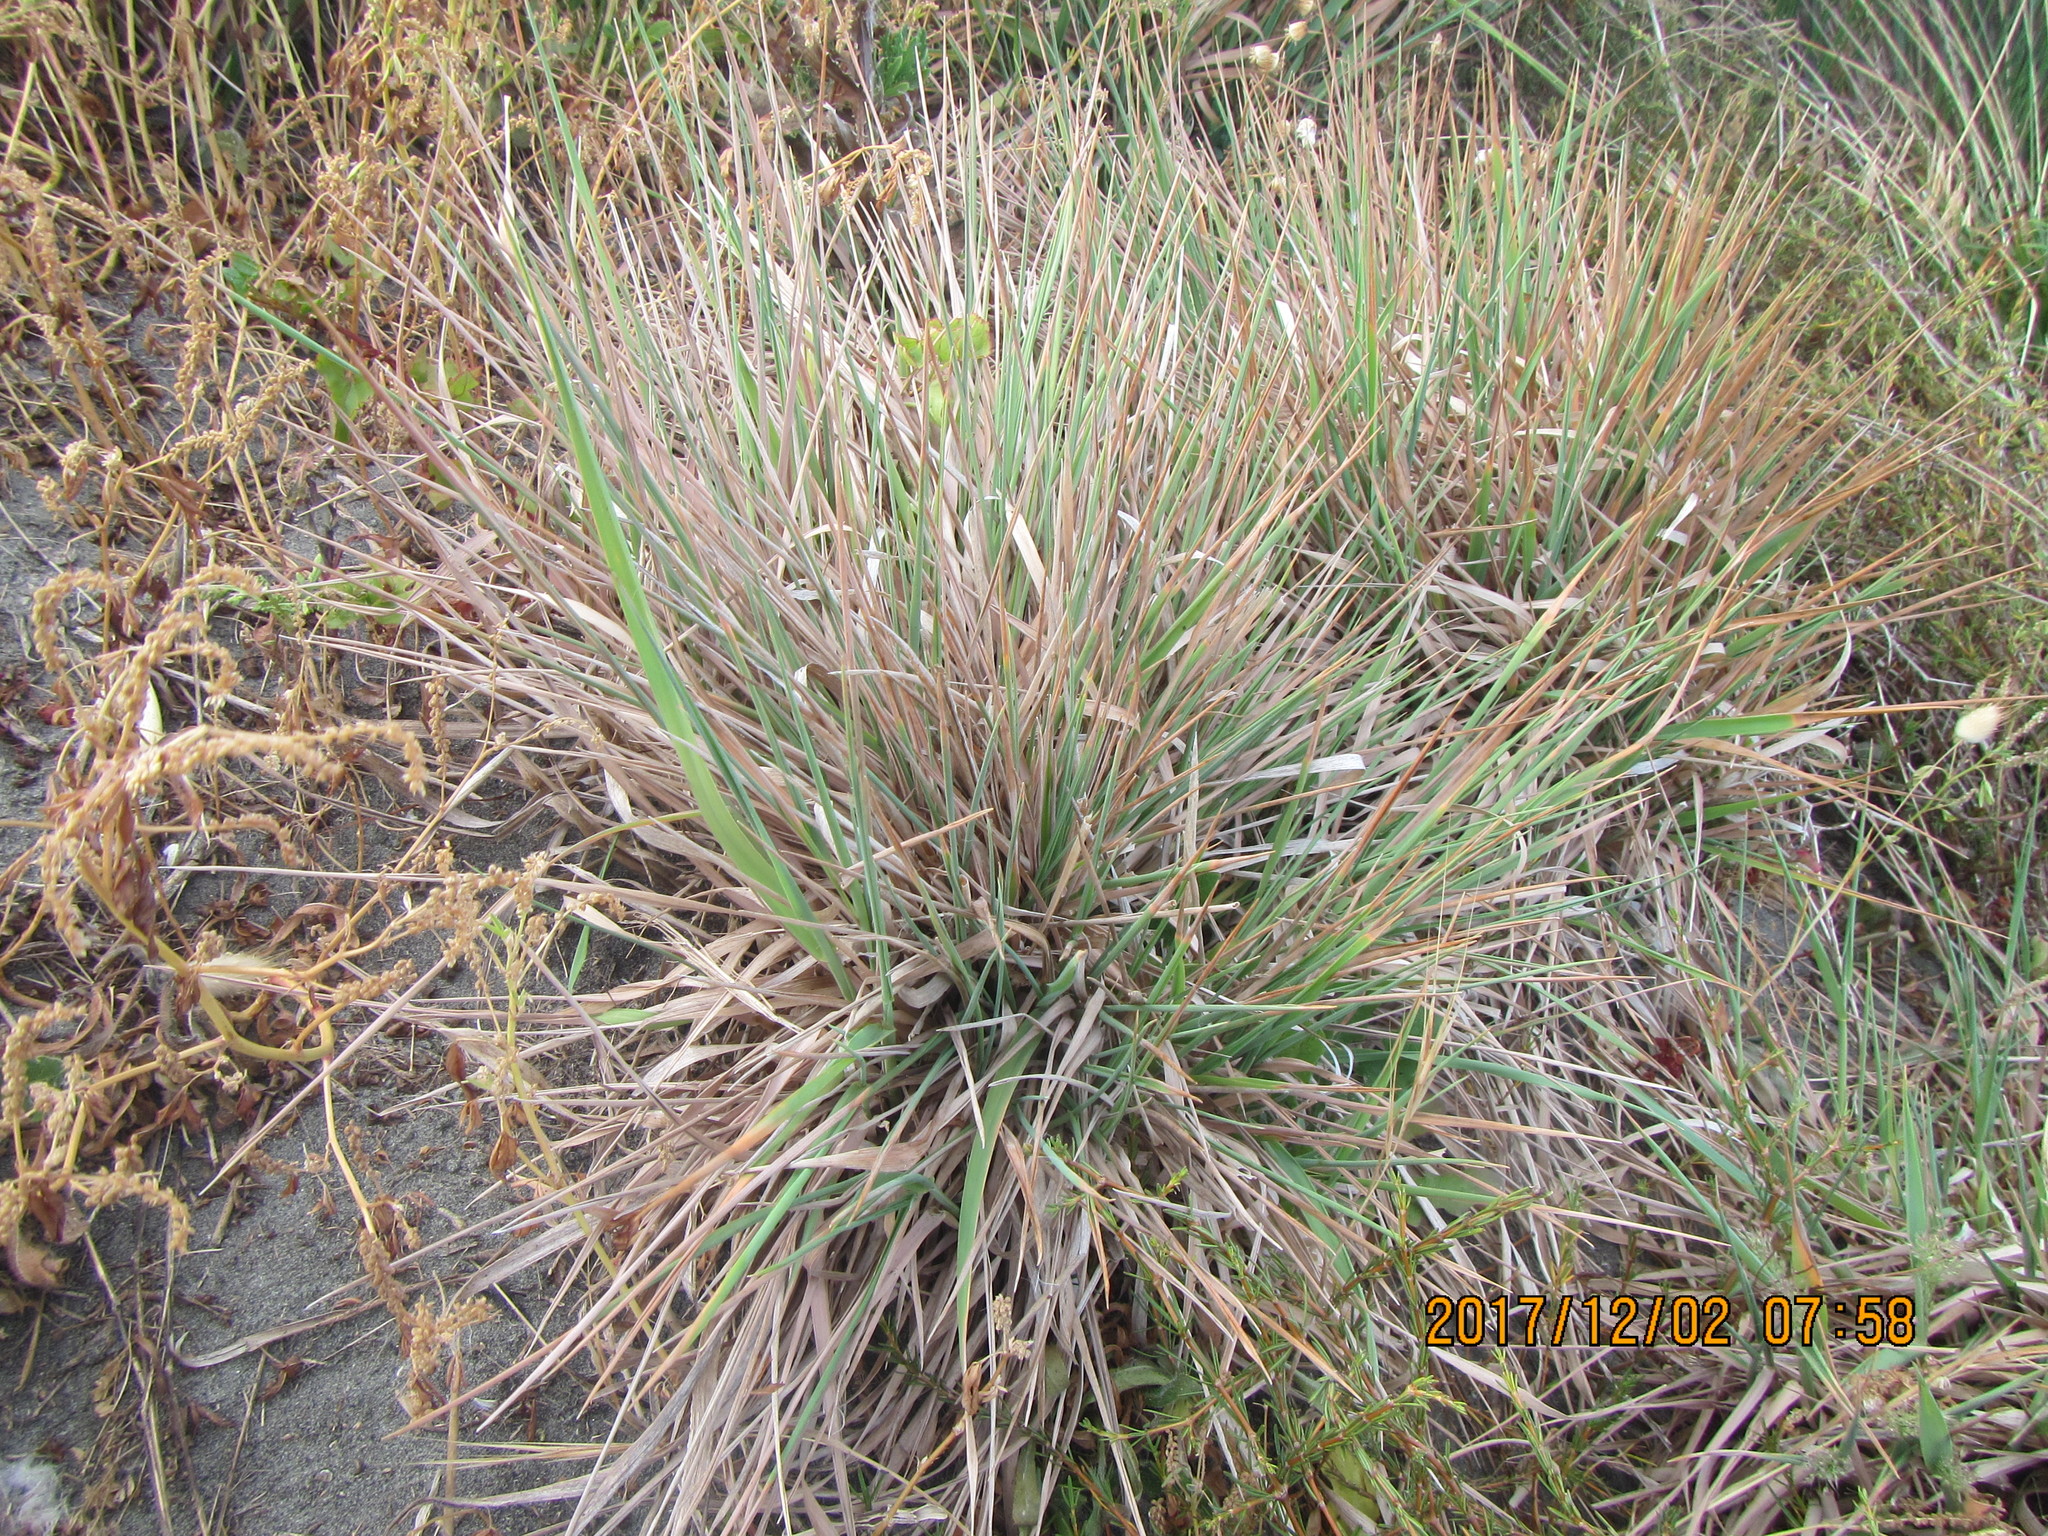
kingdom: Plantae
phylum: Tracheophyta
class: Liliopsida
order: Poales
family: Poaceae
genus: Lachnagrostis
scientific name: Lachnagrostis billardierei
